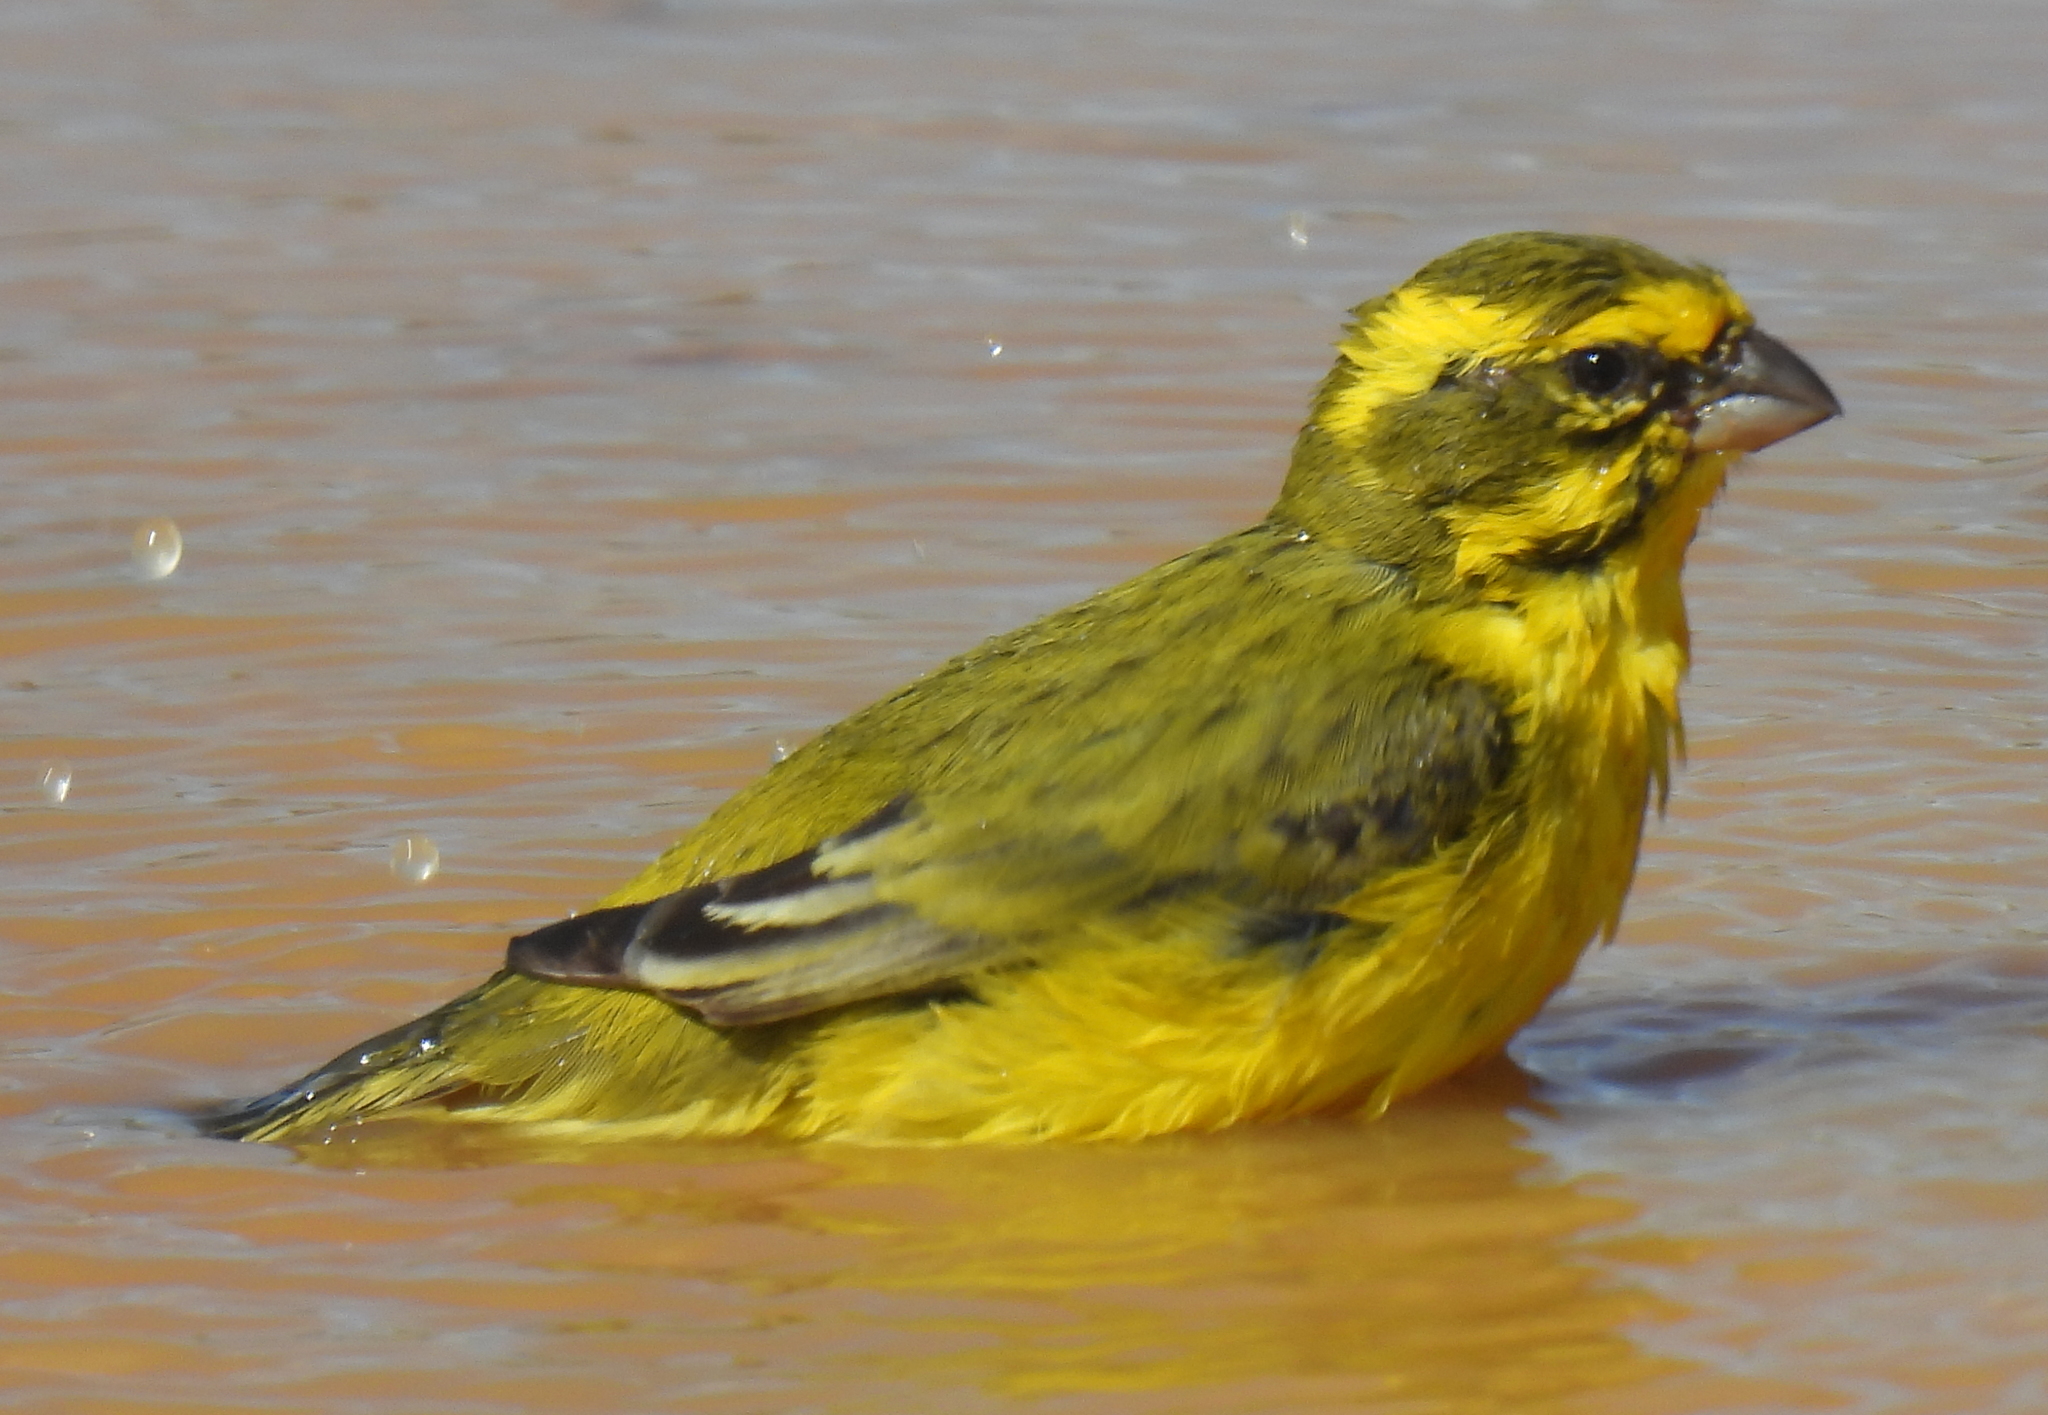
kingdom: Animalia
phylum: Chordata
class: Aves
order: Passeriformes
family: Fringillidae
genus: Crithagra
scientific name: Crithagra flaviventris
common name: Yellow canary
